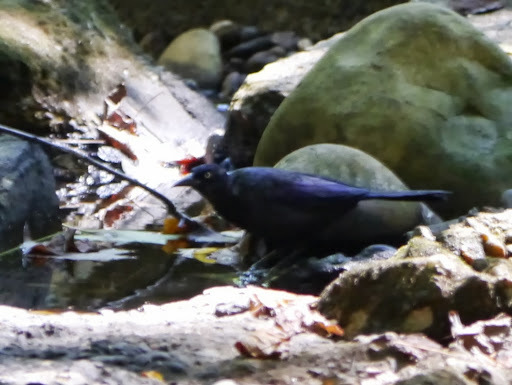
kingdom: Animalia
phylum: Chordata
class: Aves
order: Passeriformes
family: Icteridae
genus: Quiscalus
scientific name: Quiscalus quiscula
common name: Common grackle
